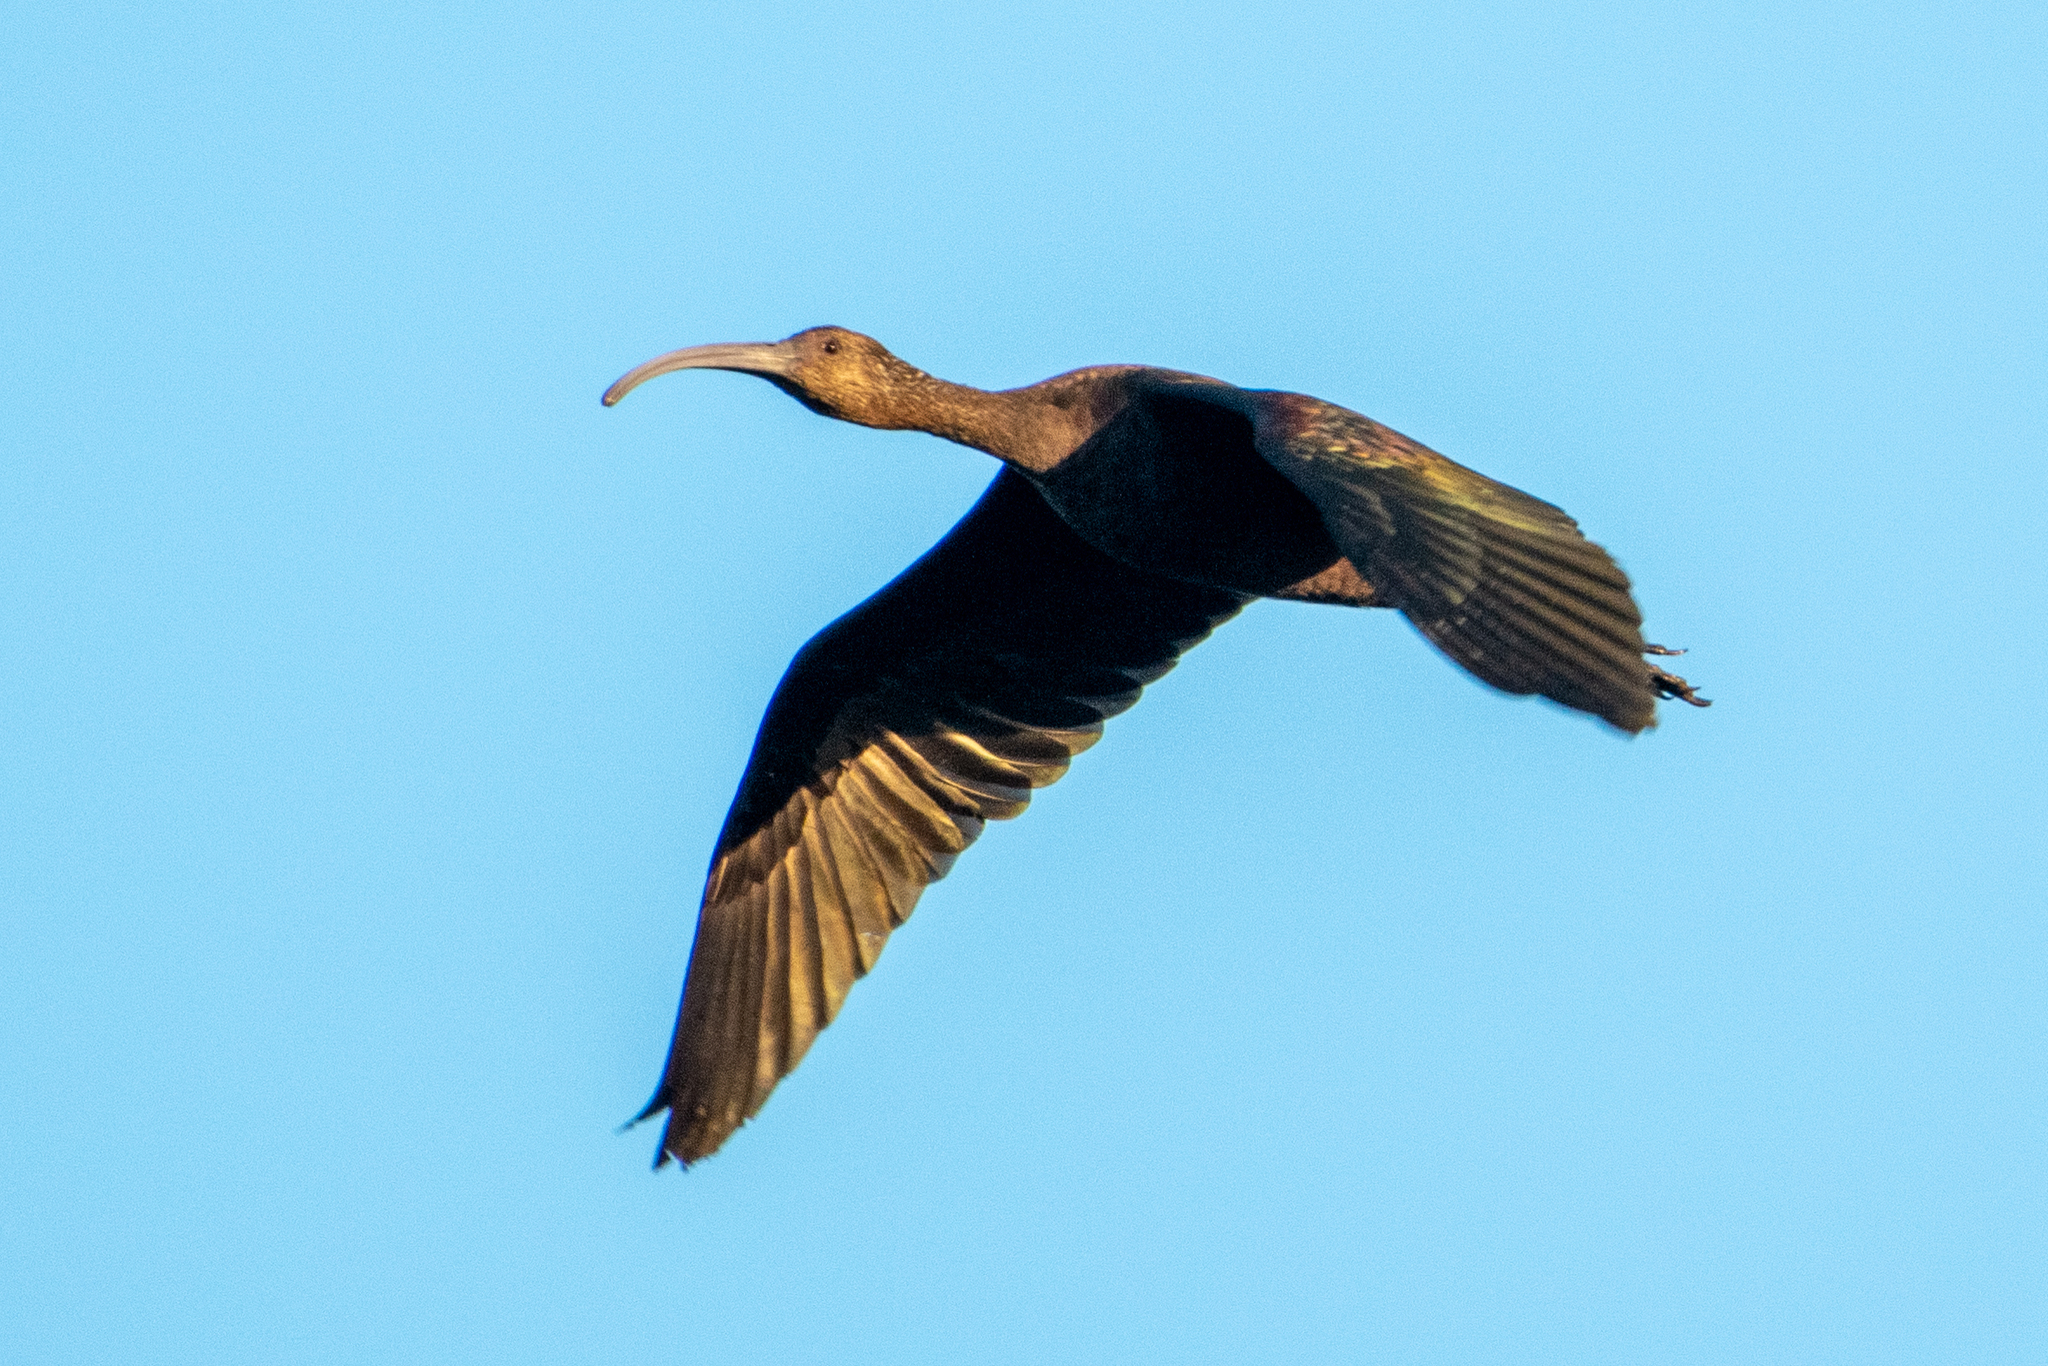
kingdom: Animalia
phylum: Chordata
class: Aves
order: Pelecaniformes
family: Threskiornithidae
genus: Plegadis
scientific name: Plegadis chihi
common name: White-faced ibis
